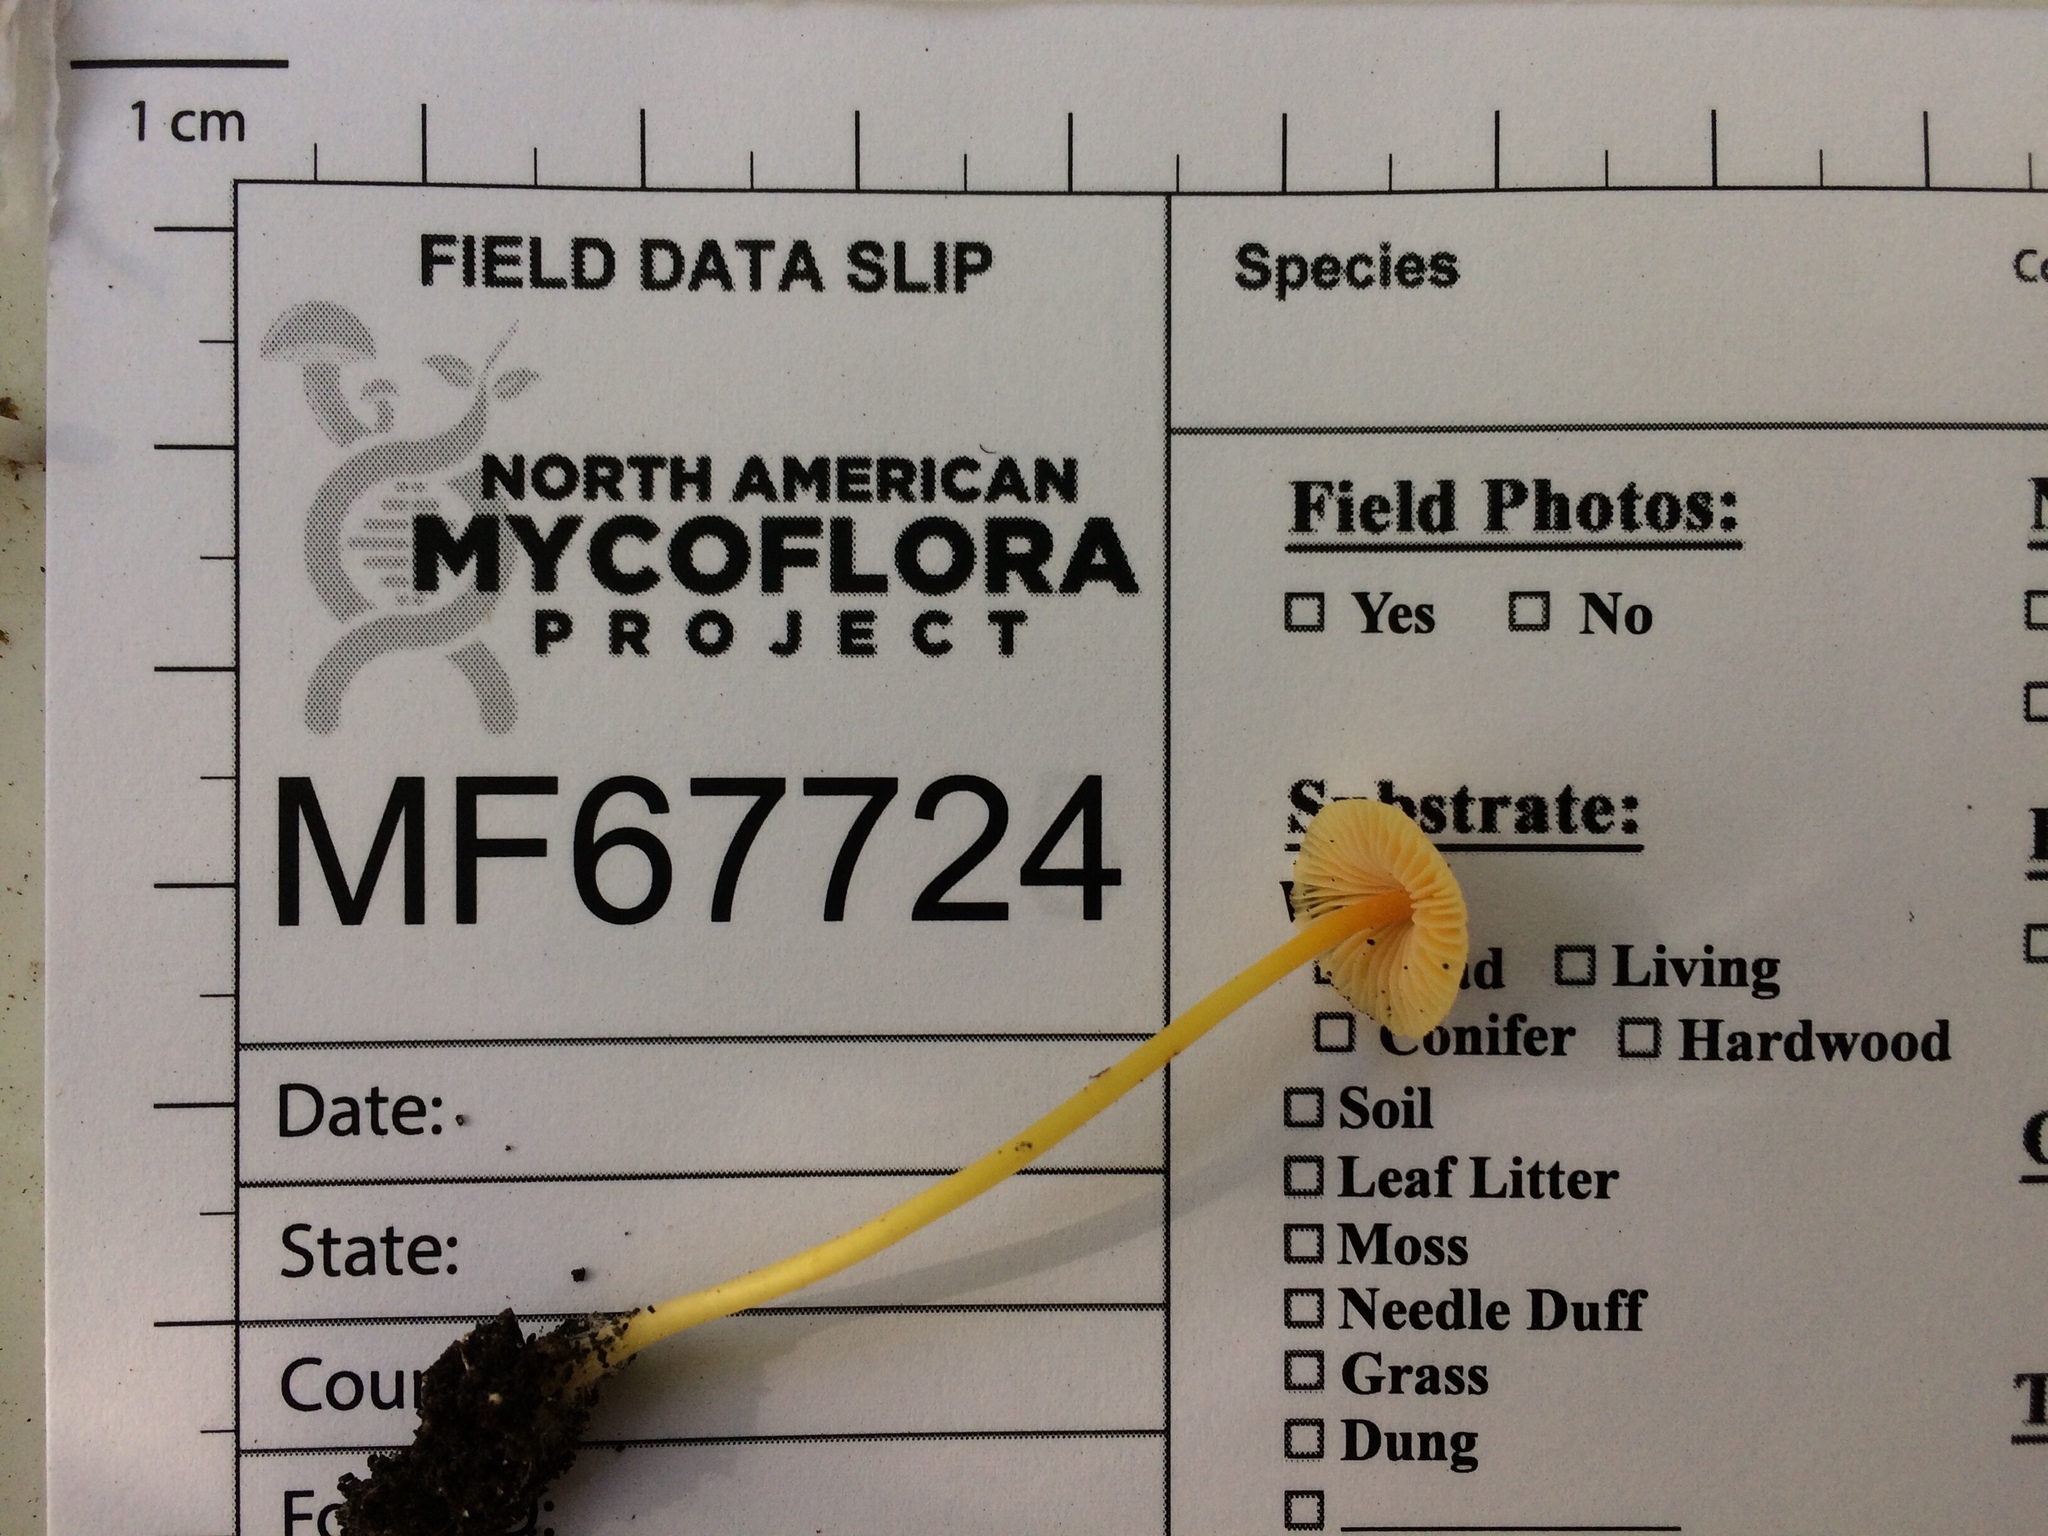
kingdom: Fungi
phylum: Basidiomycota
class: Agaricomycetes
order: Agaricales
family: Mycenaceae
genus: Mycena
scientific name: Mycena crocea
